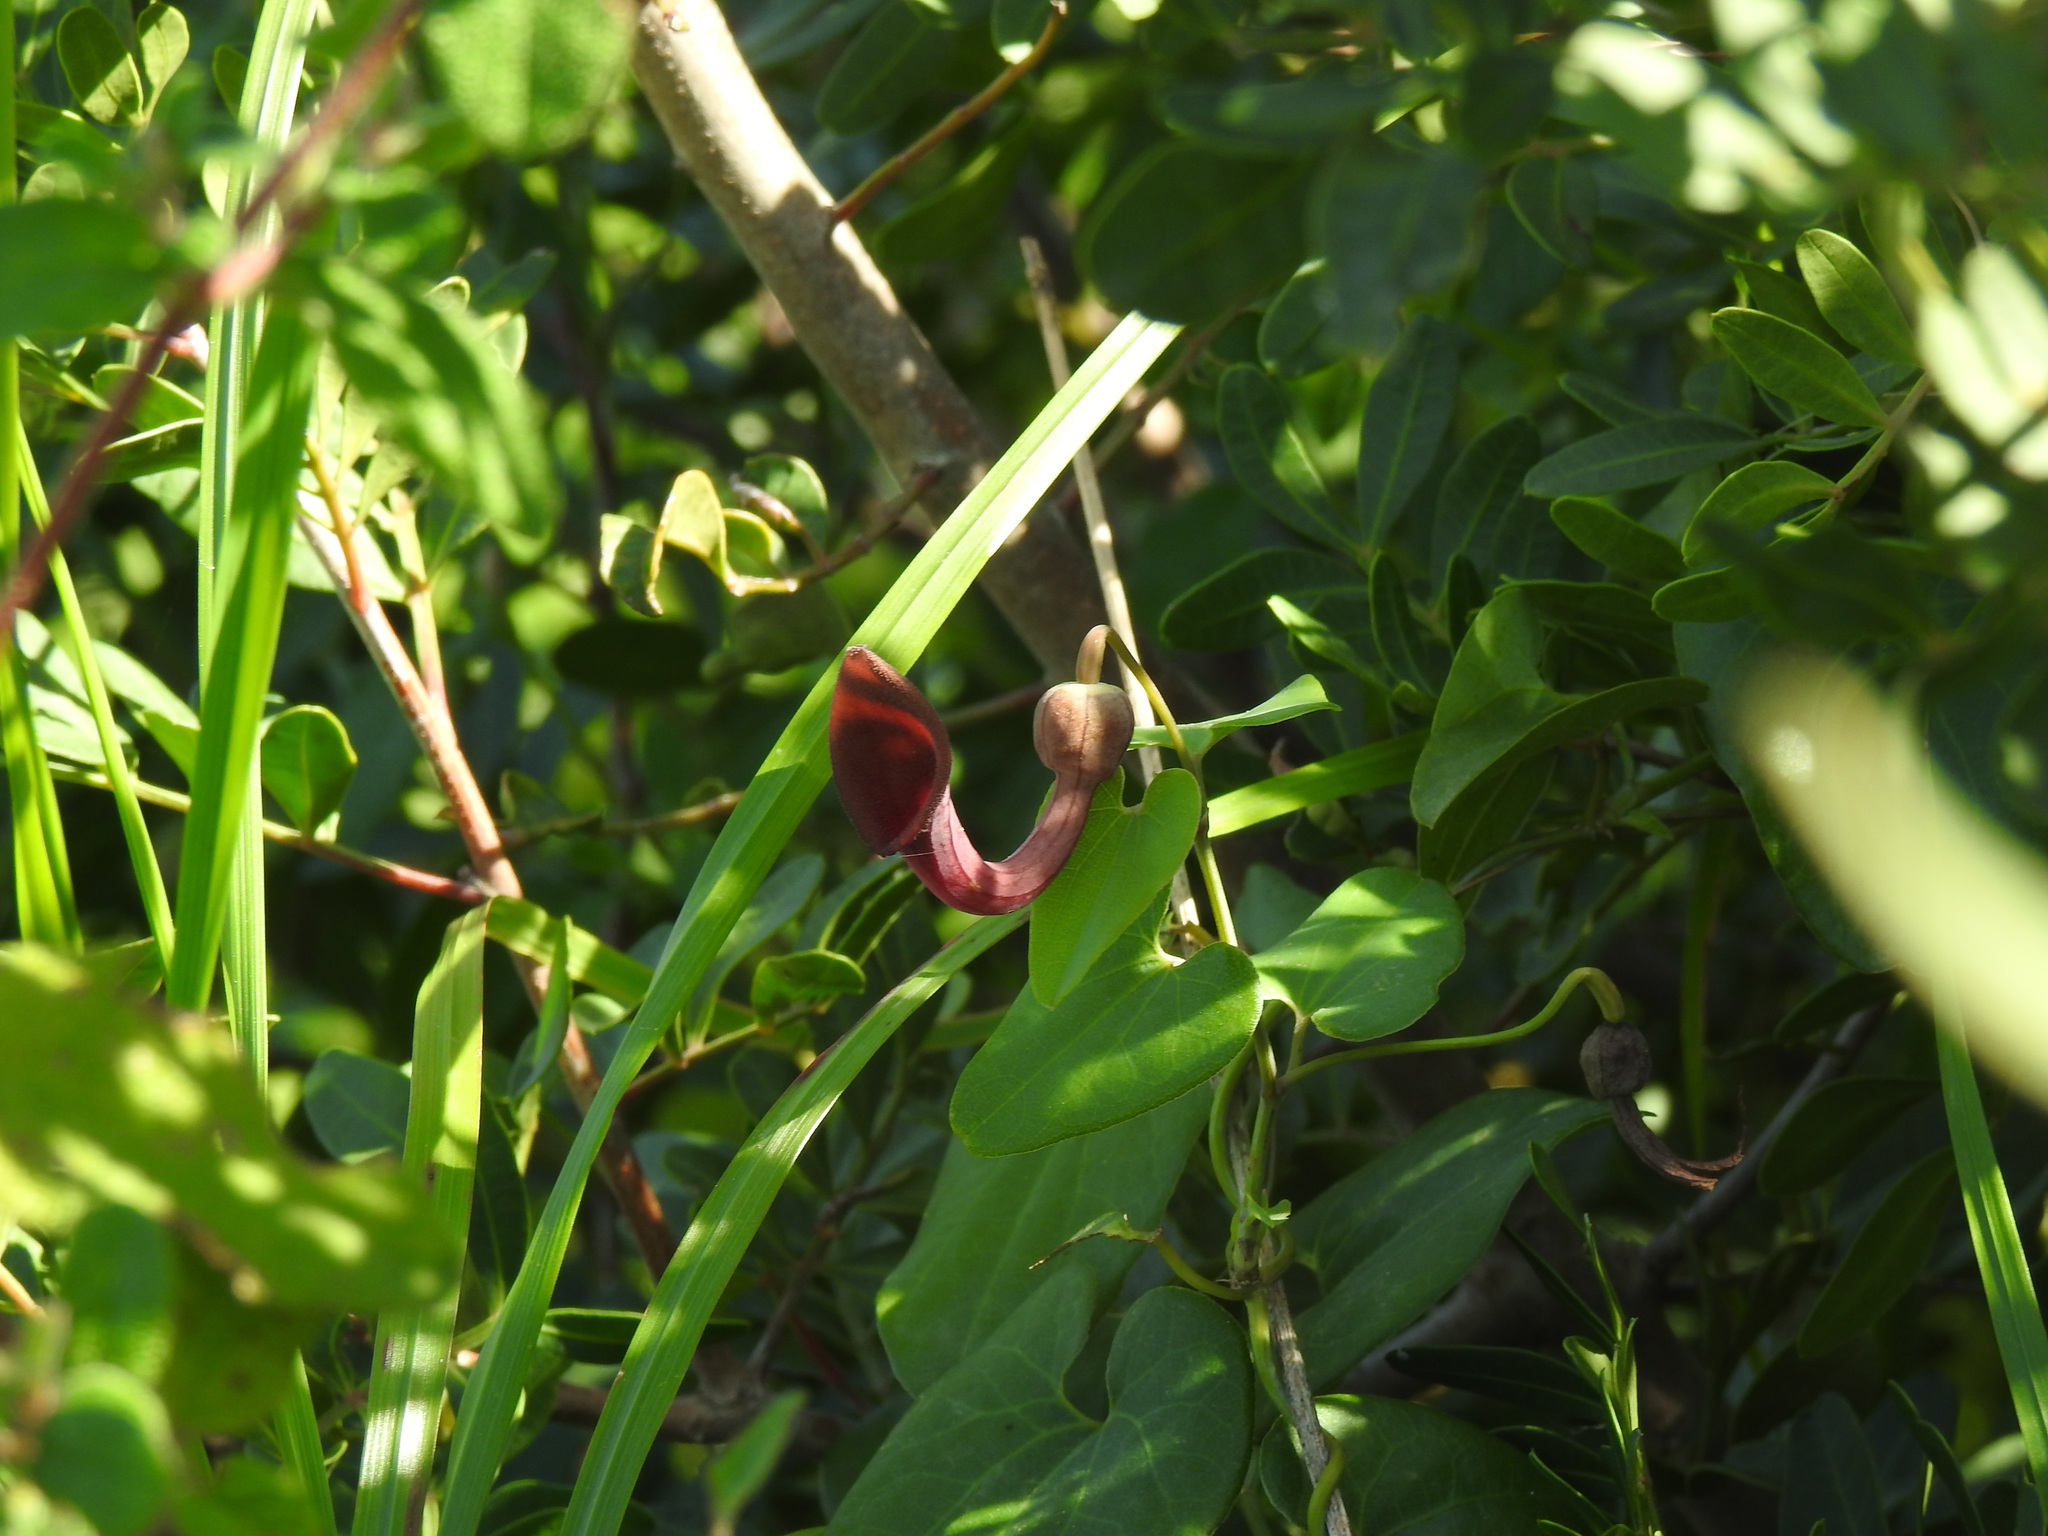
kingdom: Plantae
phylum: Tracheophyta
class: Magnoliopsida
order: Piperales
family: Aristolochiaceae
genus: Aristolochia
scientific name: Aristolochia baetica
